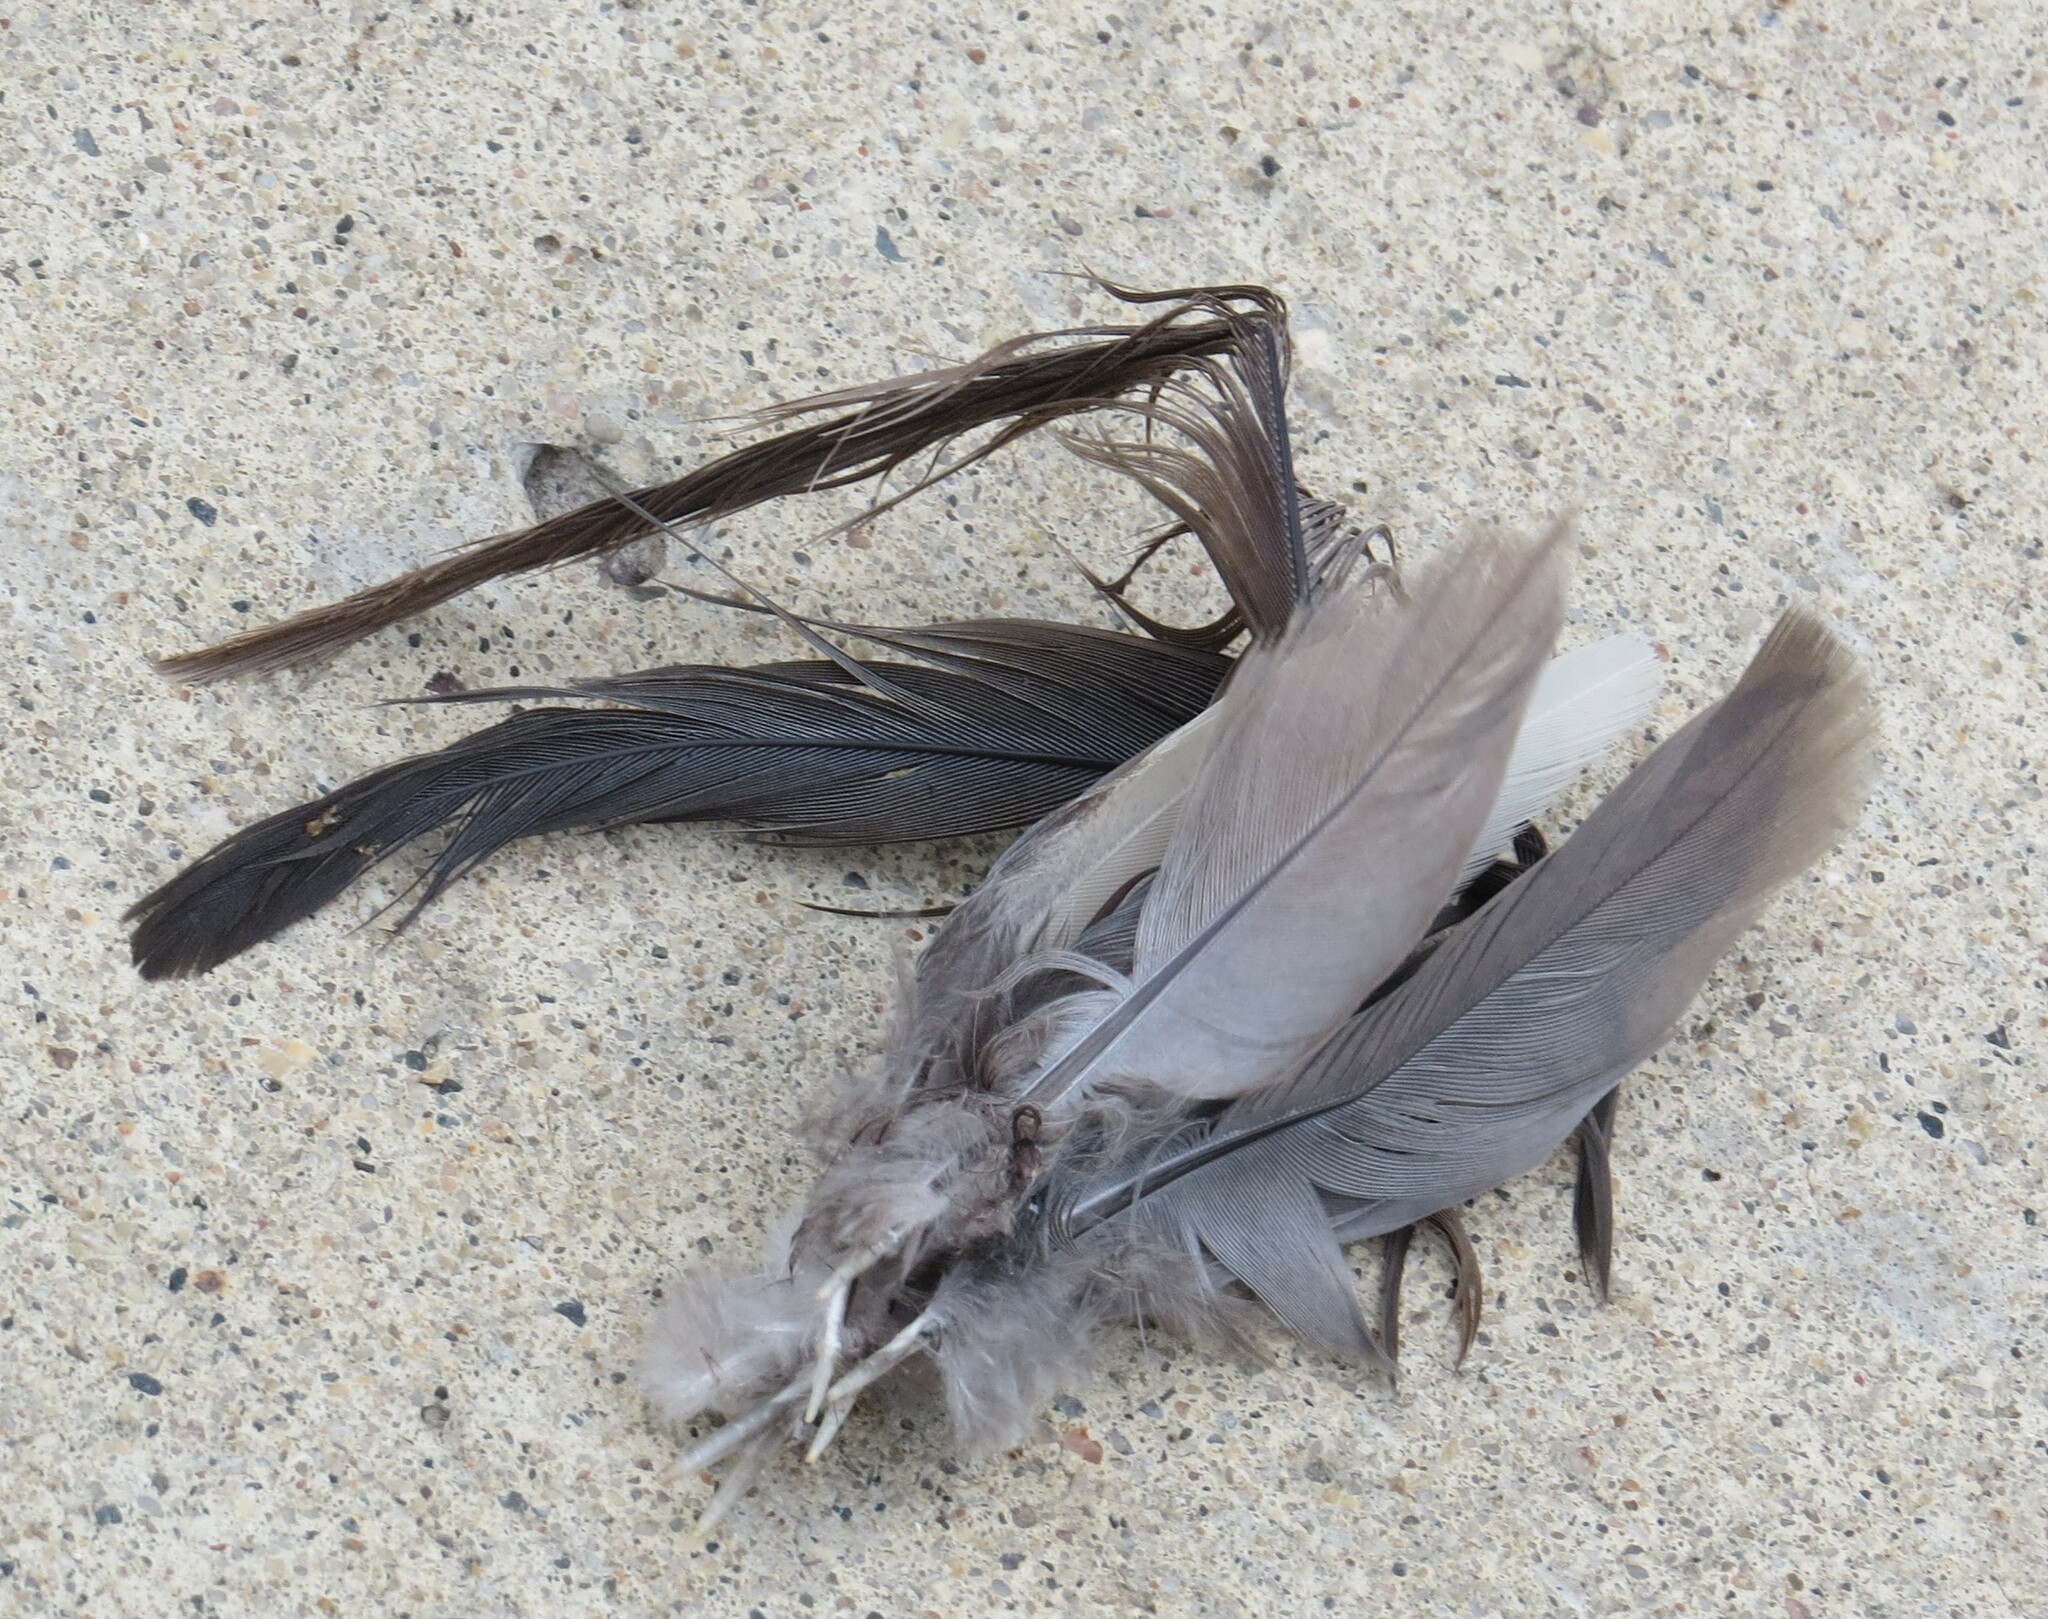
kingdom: Animalia
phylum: Chordata
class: Aves
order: Columbiformes
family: Columbidae
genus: Zenaida
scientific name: Zenaida macroura
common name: Mourning dove
